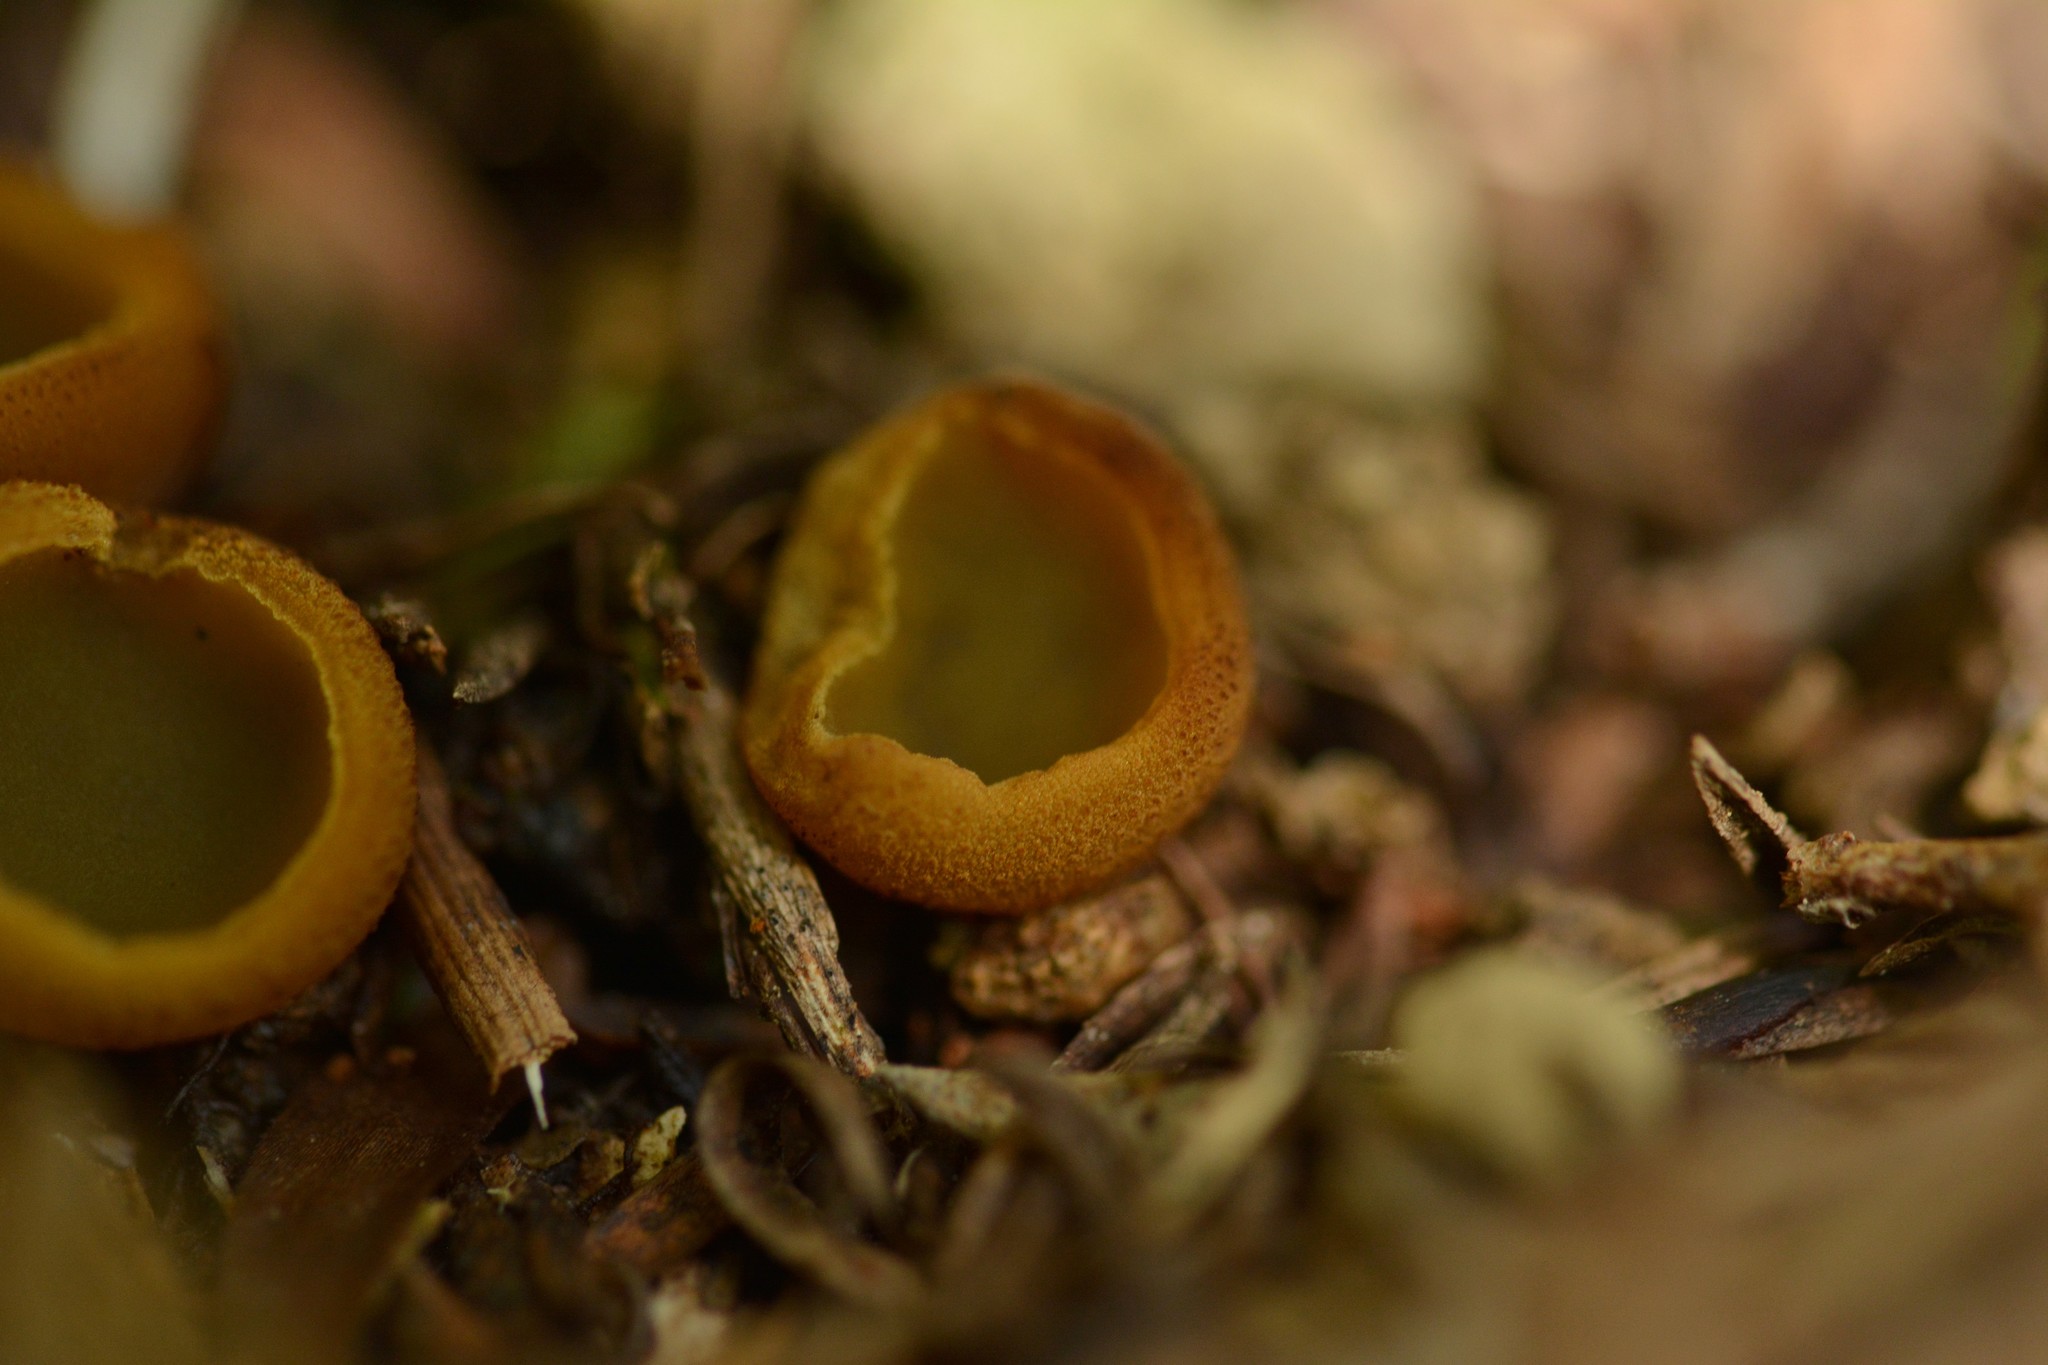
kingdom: Fungi
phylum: Ascomycota
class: Pezizomycetes
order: Pezizales
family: Pyronemataceae
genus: Aleurina
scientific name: Aleurina magnicellula
